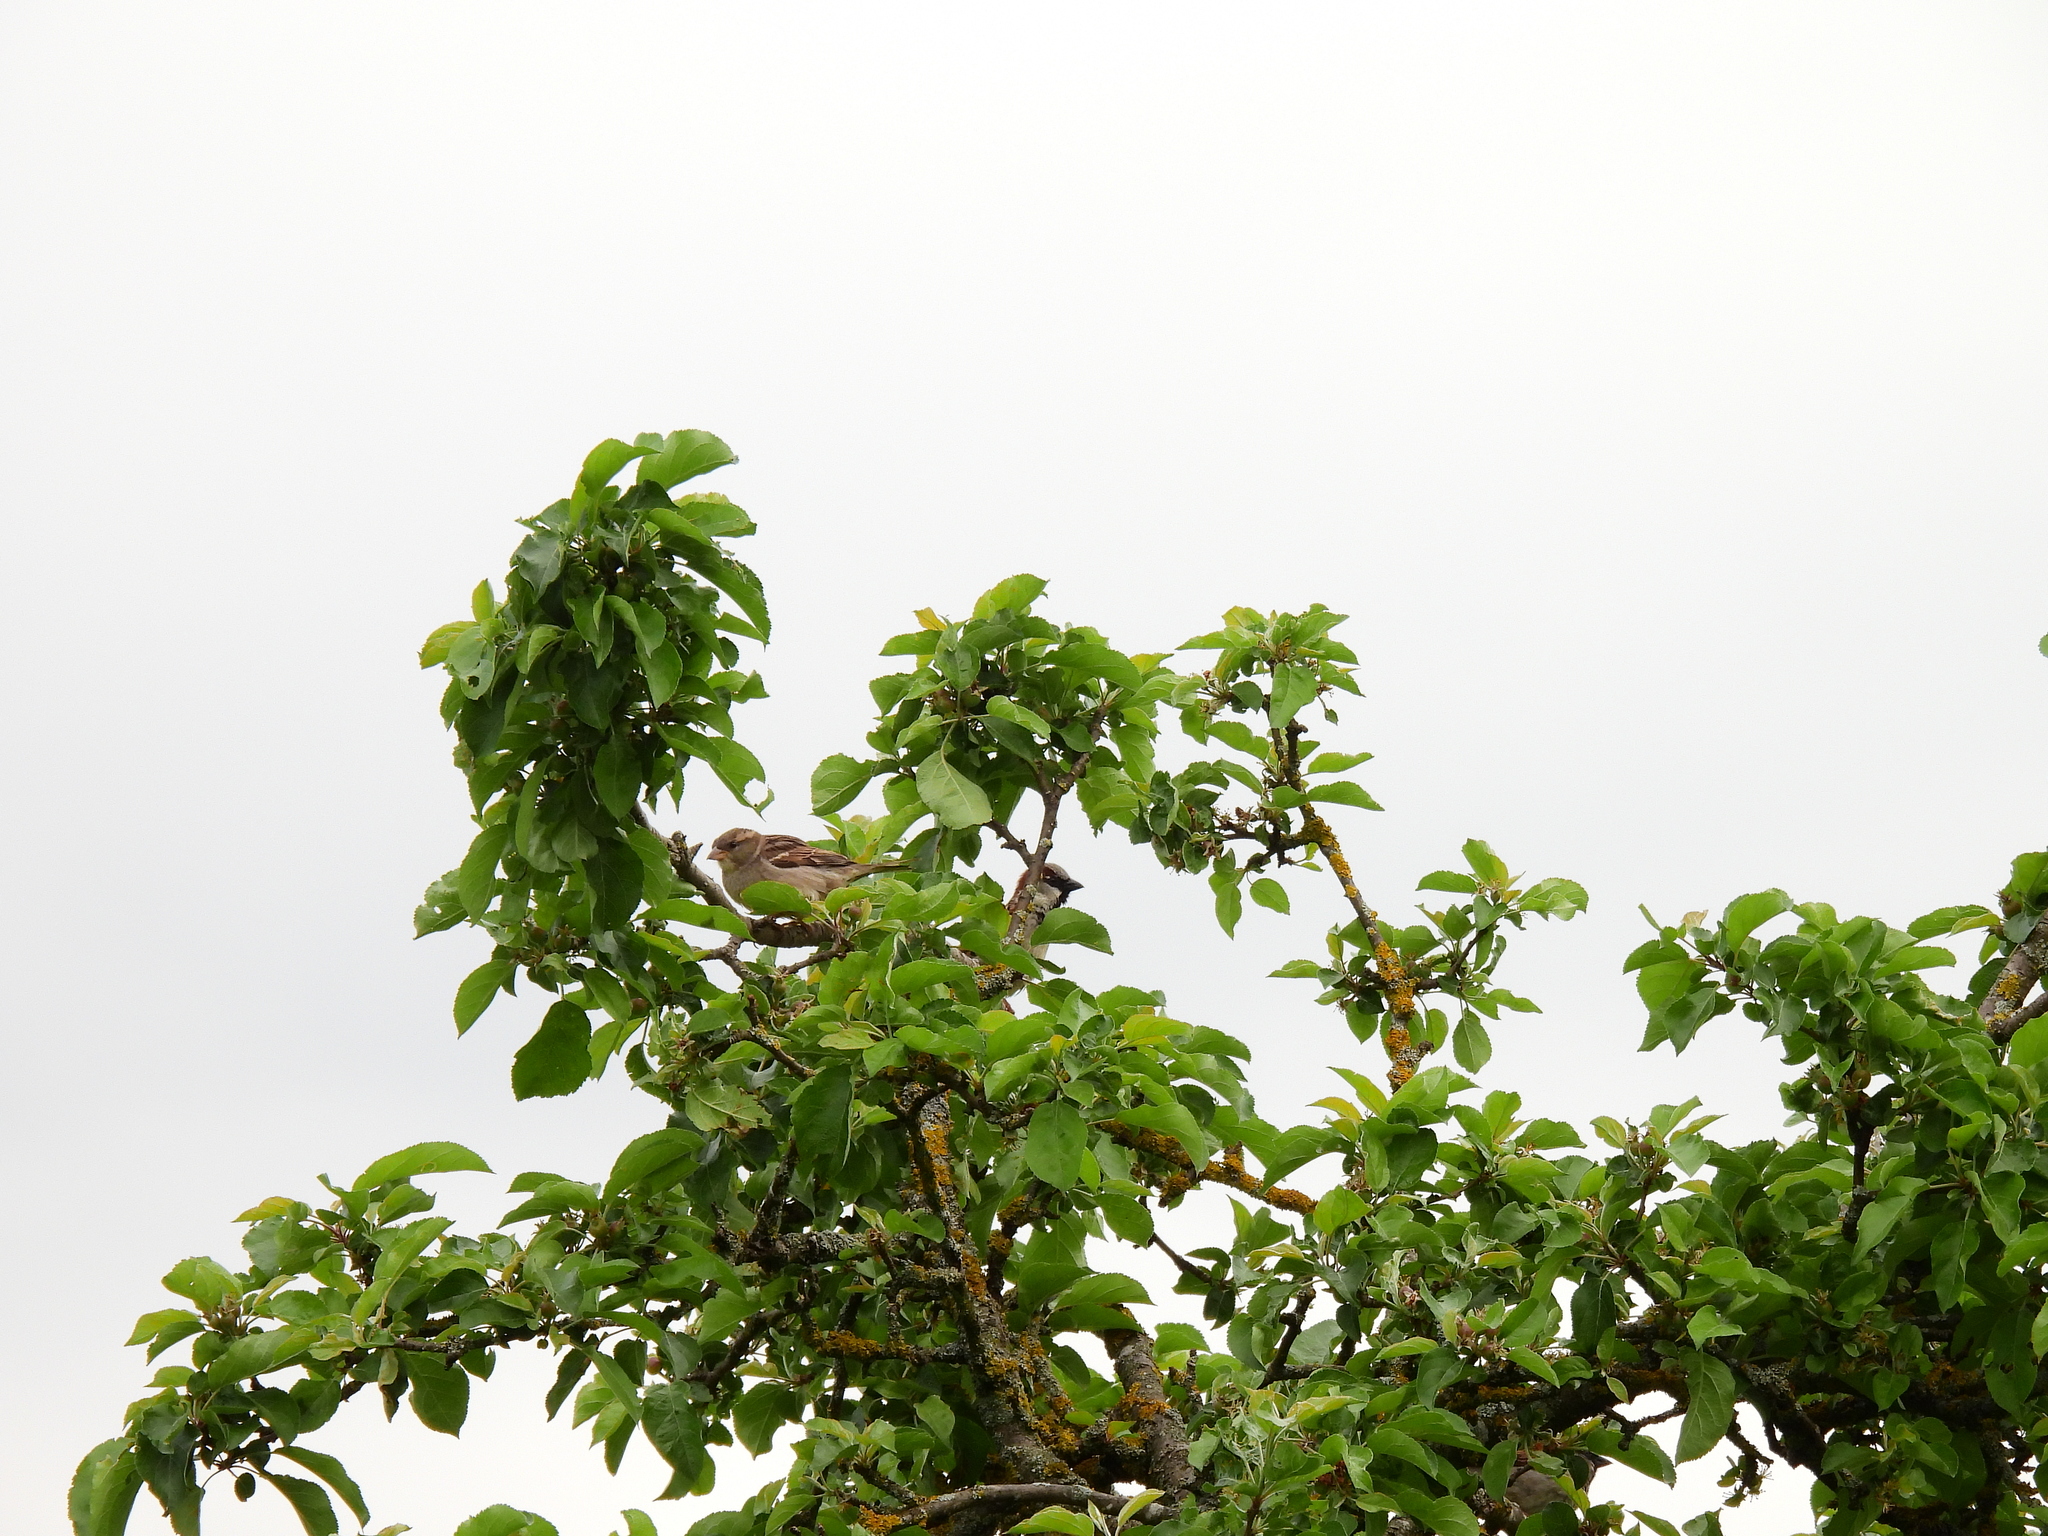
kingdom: Animalia
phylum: Chordata
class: Aves
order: Passeriformes
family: Passeridae
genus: Passer
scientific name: Passer domesticus
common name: House sparrow
